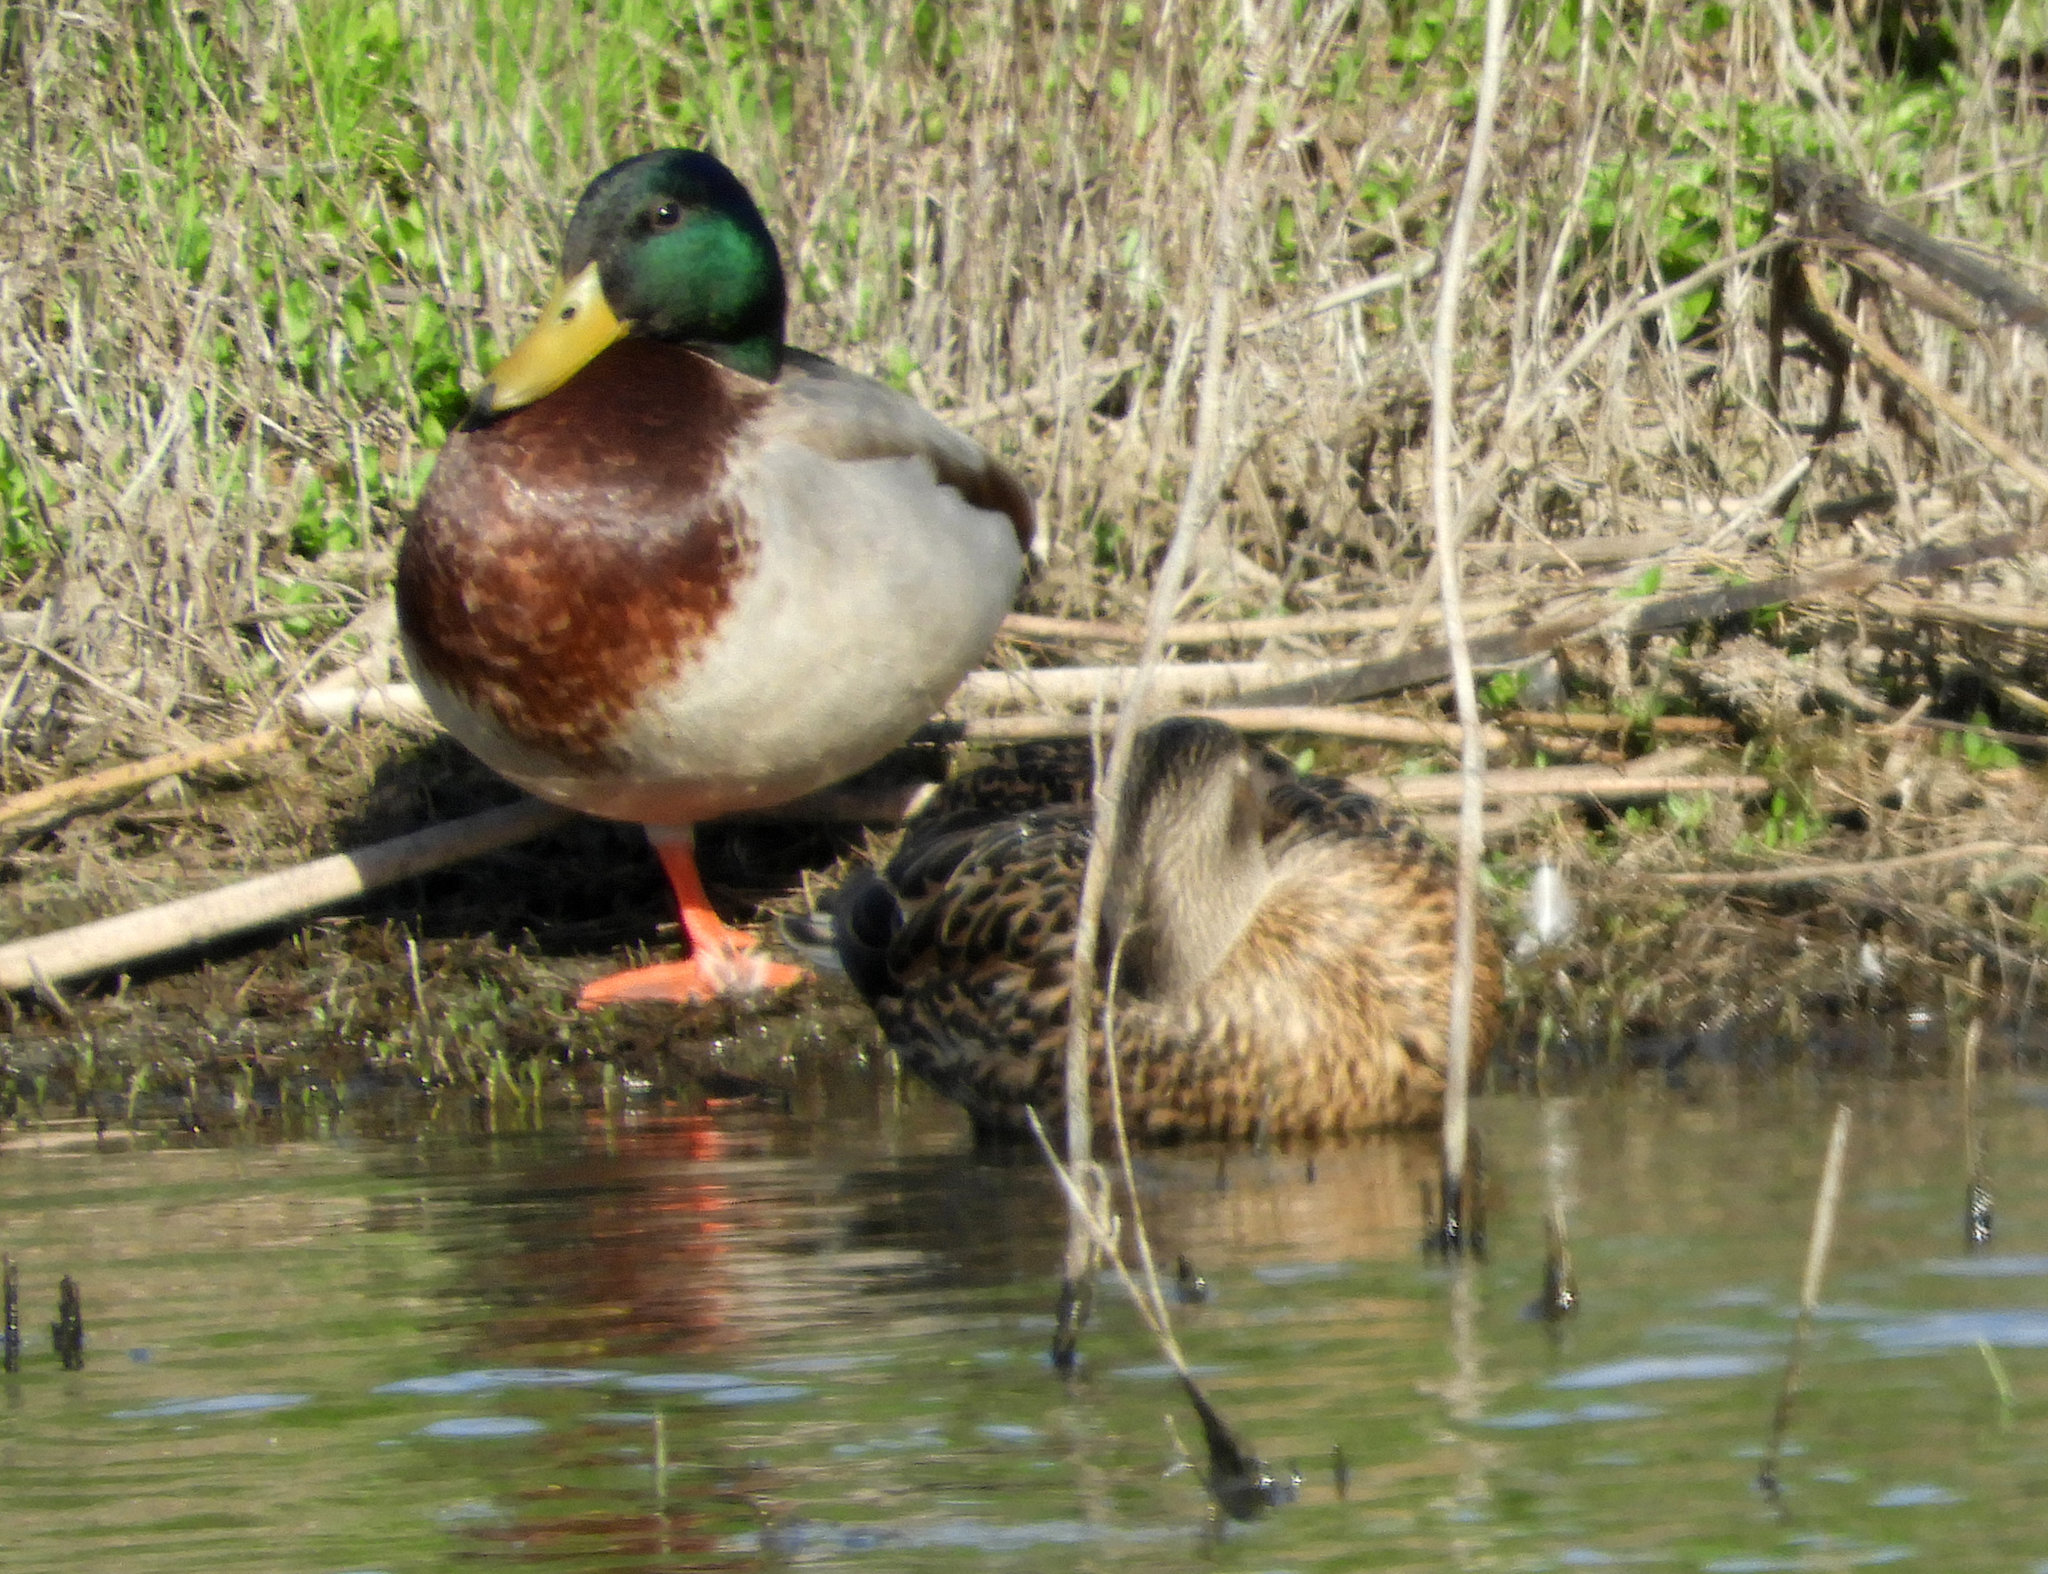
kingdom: Animalia
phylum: Chordata
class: Aves
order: Anseriformes
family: Anatidae
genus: Anas
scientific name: Anas platyrhynchos
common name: Mallard
